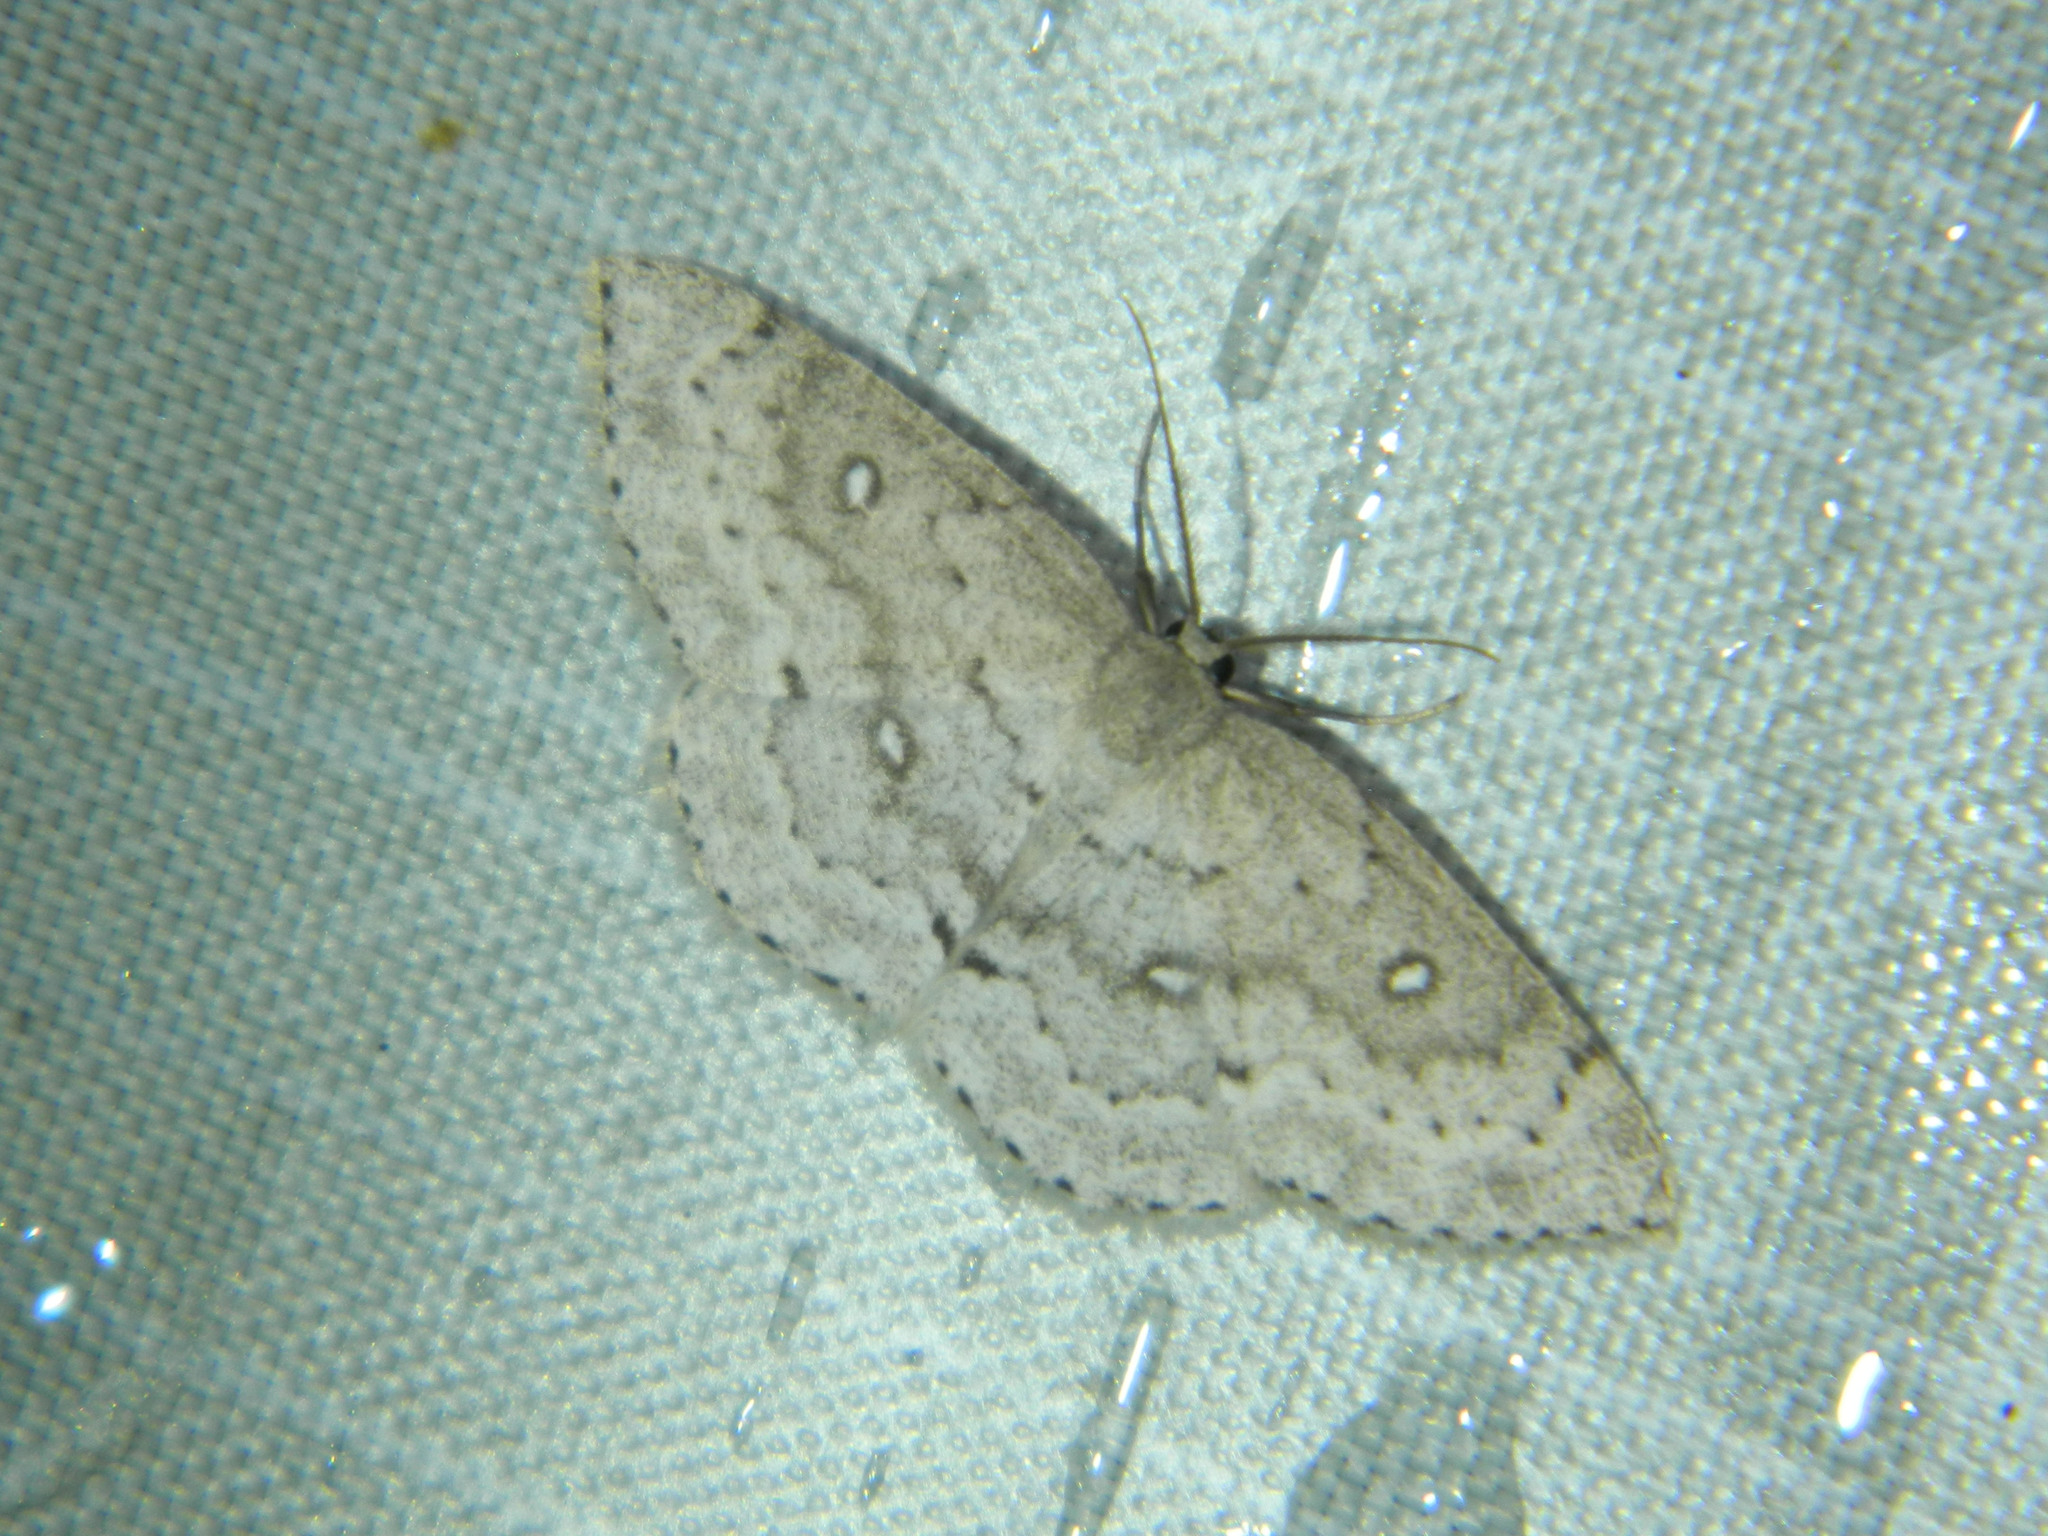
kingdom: Animalia
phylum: Arthropoda
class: Insecta
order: Lepidoptera
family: Geometridae
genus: Cyclophora
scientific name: Cyclophora pendulinaria
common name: Sweet fern geometer
